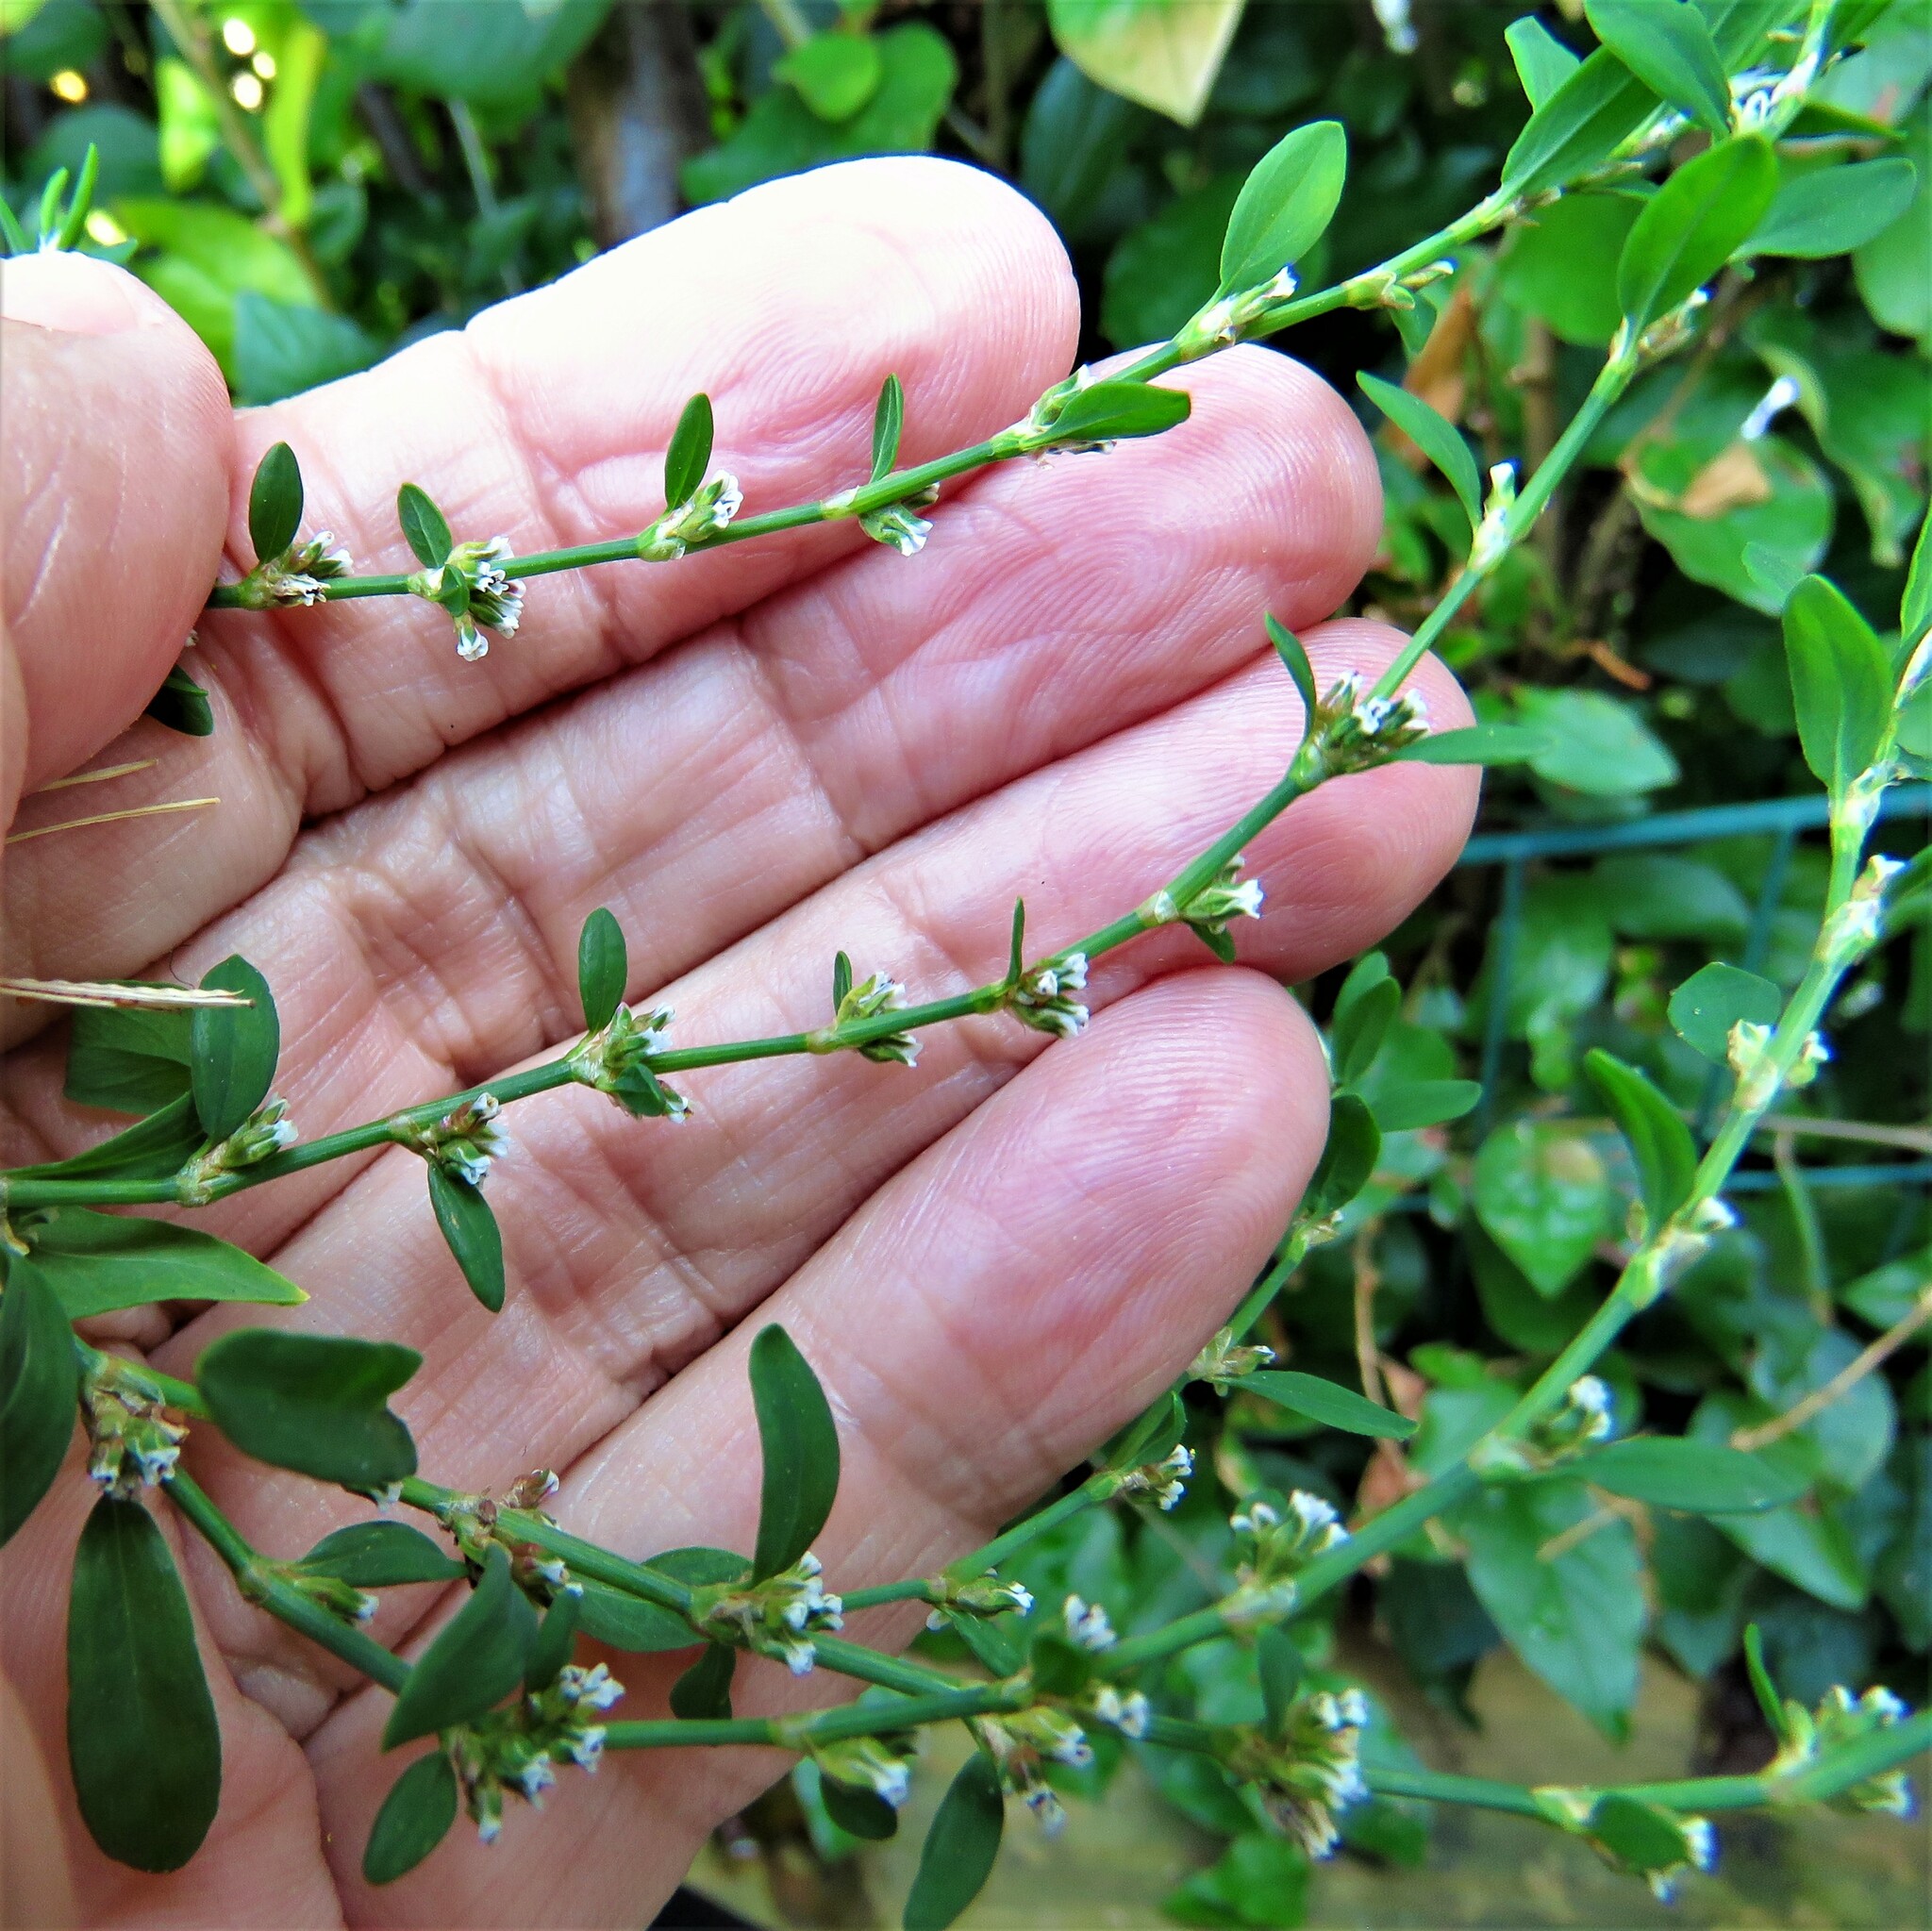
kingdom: Plantae
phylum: Tracheophyta
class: Magnoliopsida
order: Caryophyllales
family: Polygonaceae
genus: Polygonum
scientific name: Polygonum aviculare
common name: Prostrate knotweed
